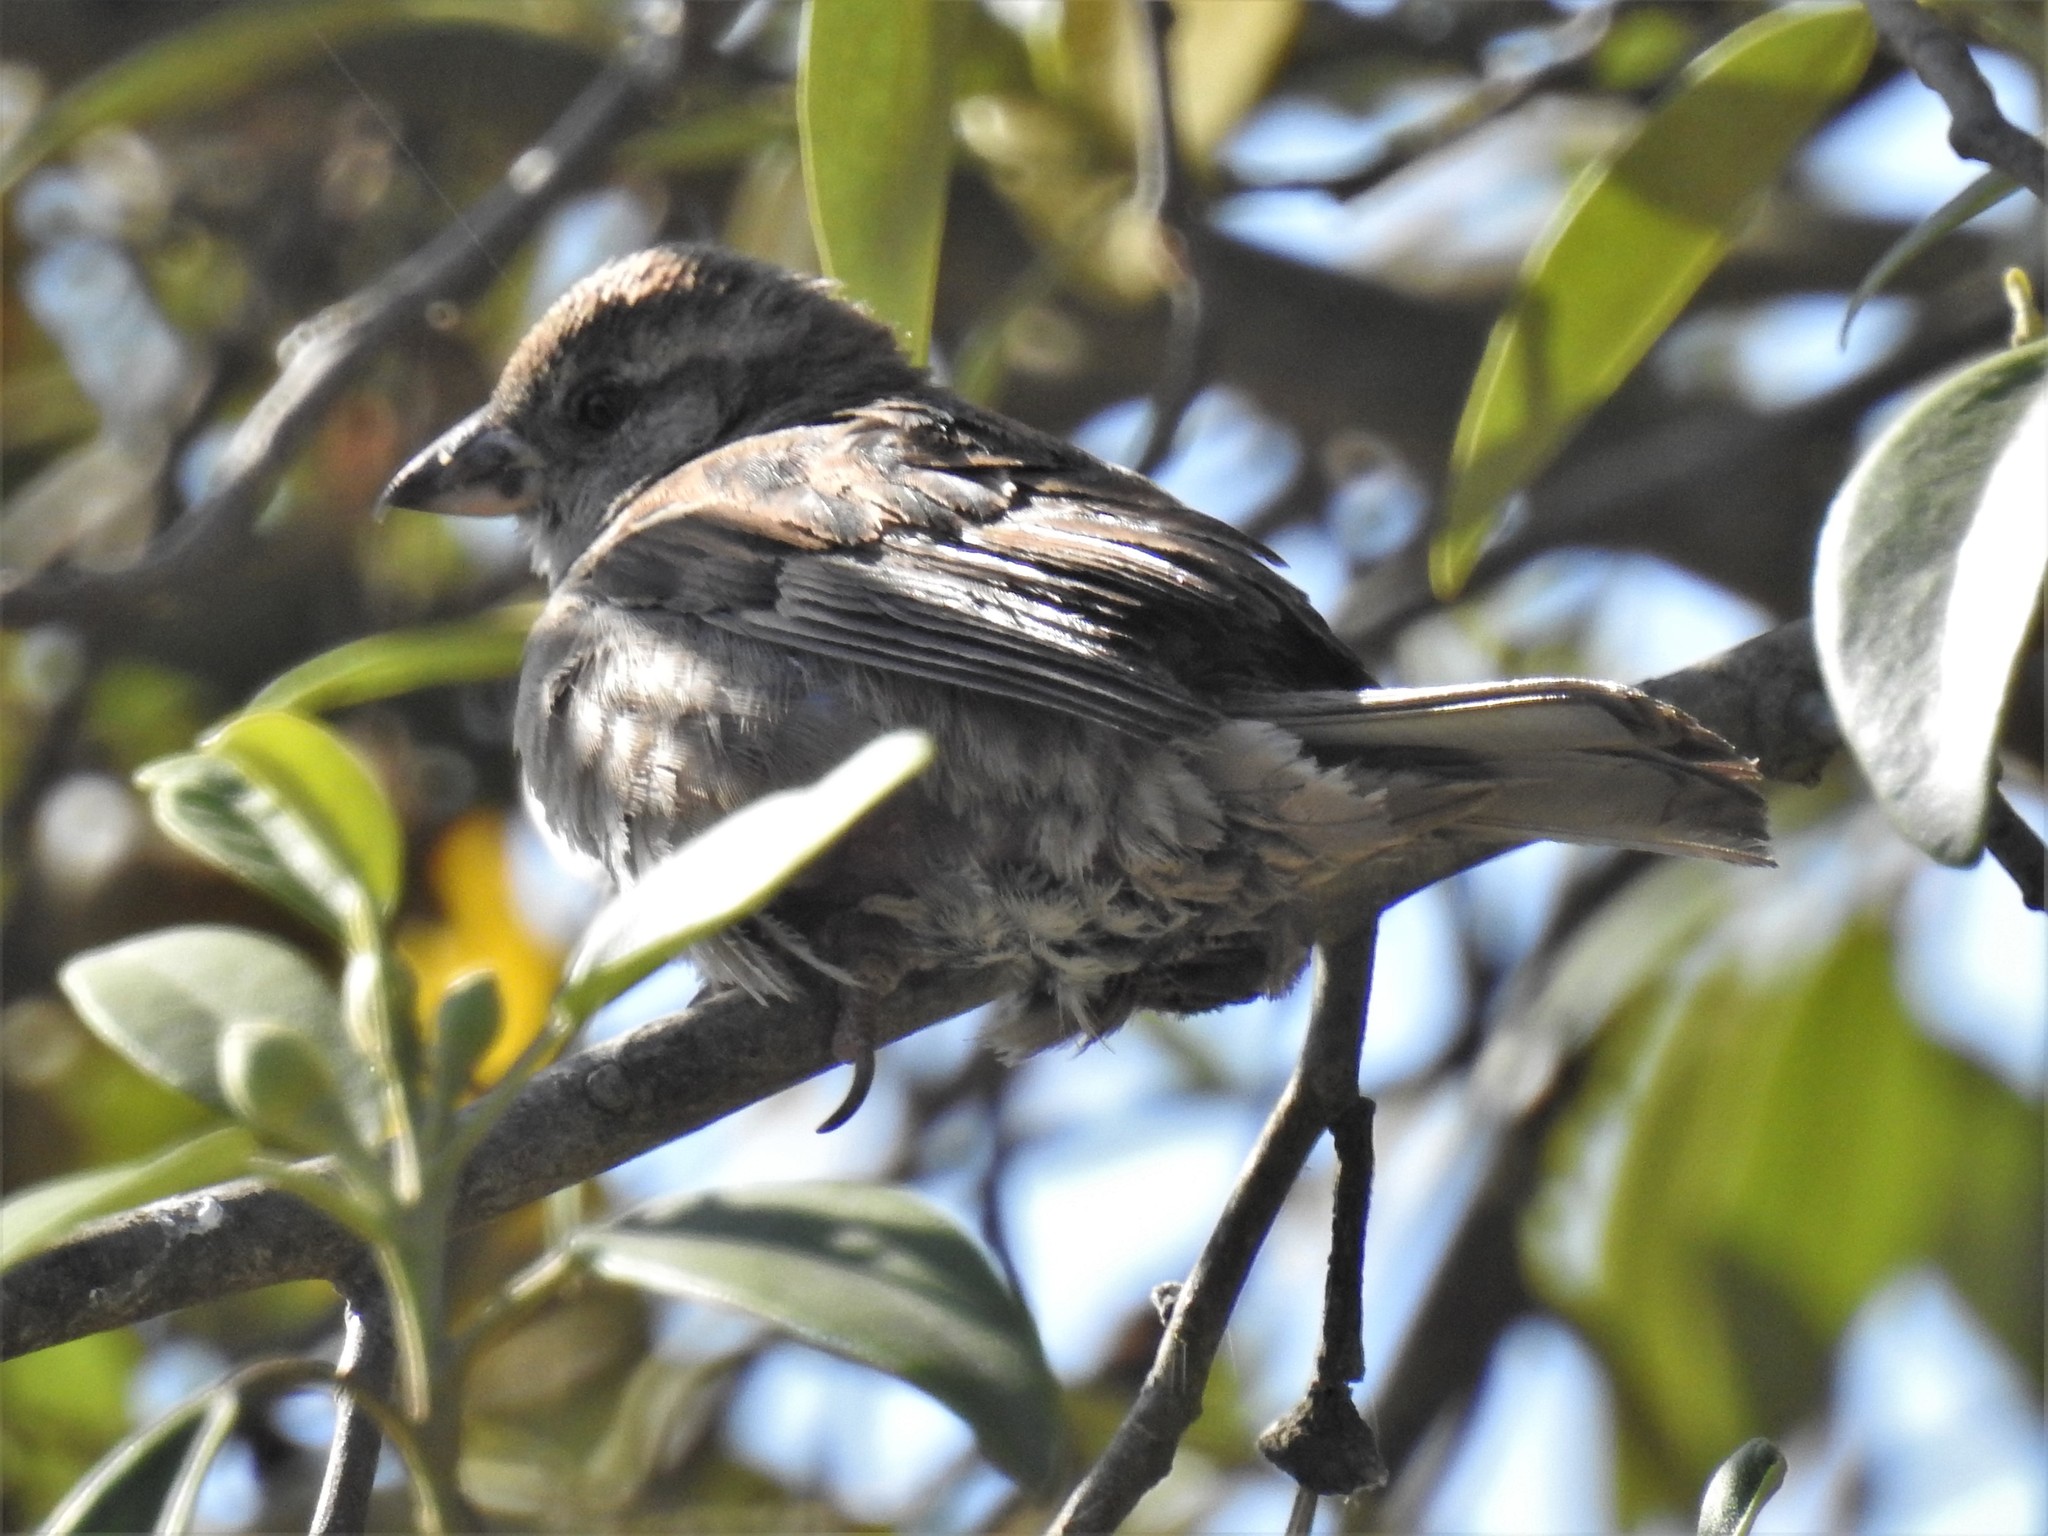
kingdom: Animalia
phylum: Chordata
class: Aves
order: Passeriformes
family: Passeridae
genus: Passer
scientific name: Passer domesticus
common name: House sparrow
